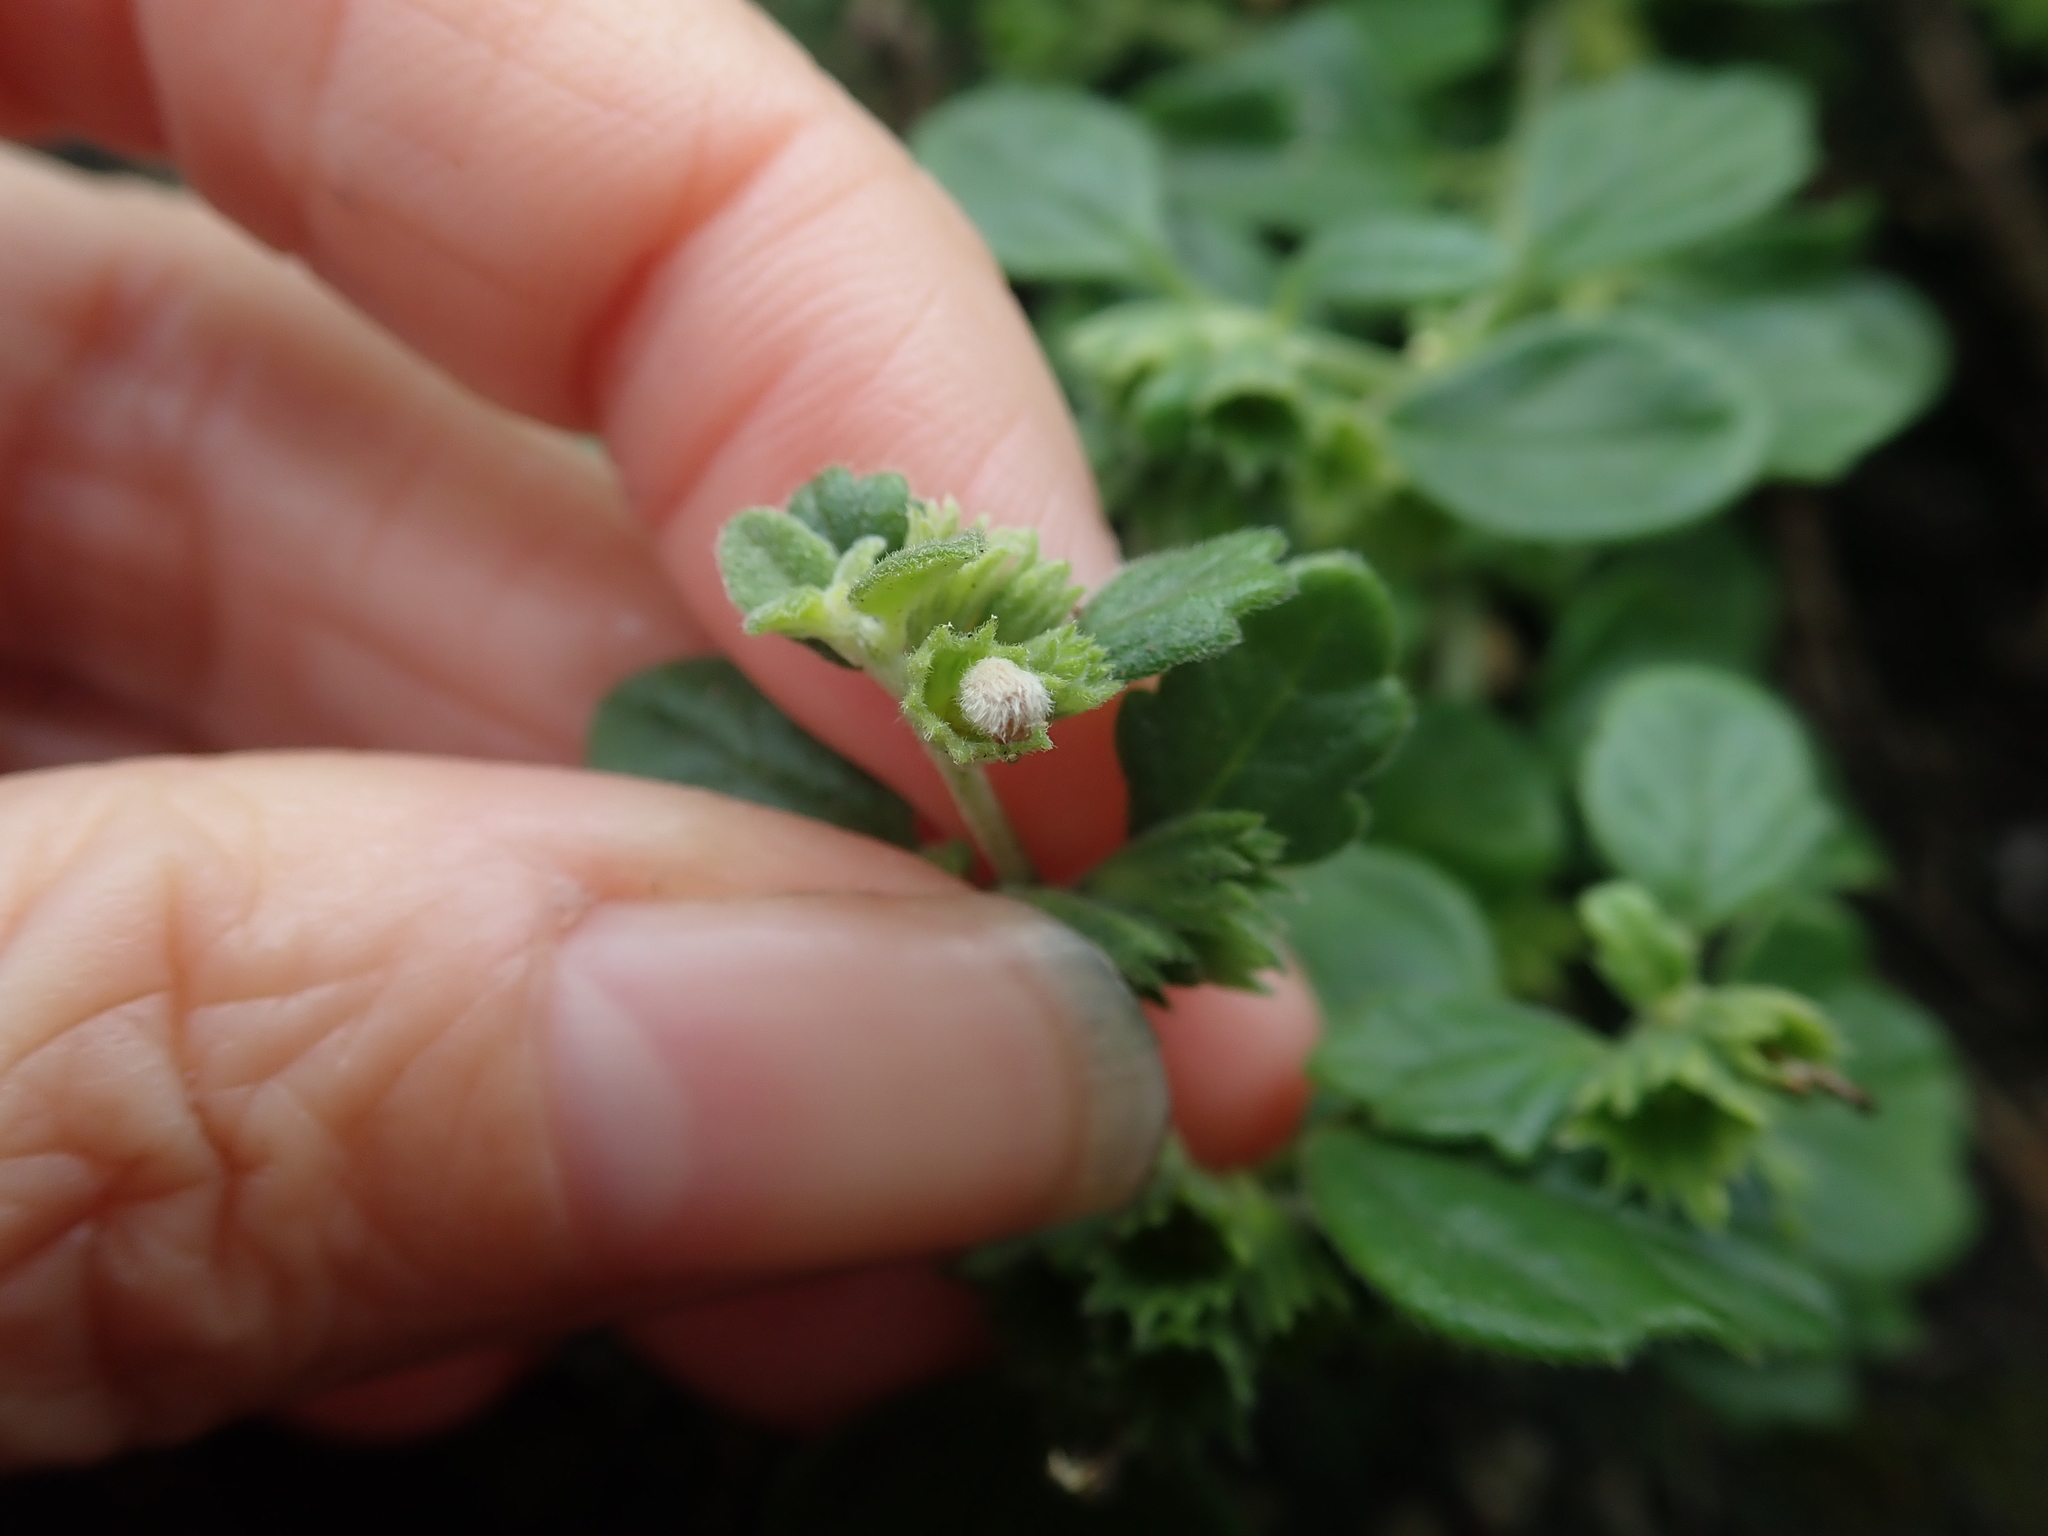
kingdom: Plantae
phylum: Tracheophyta
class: Magnoliopsida
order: Lamiales
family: Lamiaceae
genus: Leucas
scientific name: Leucas chinensis
